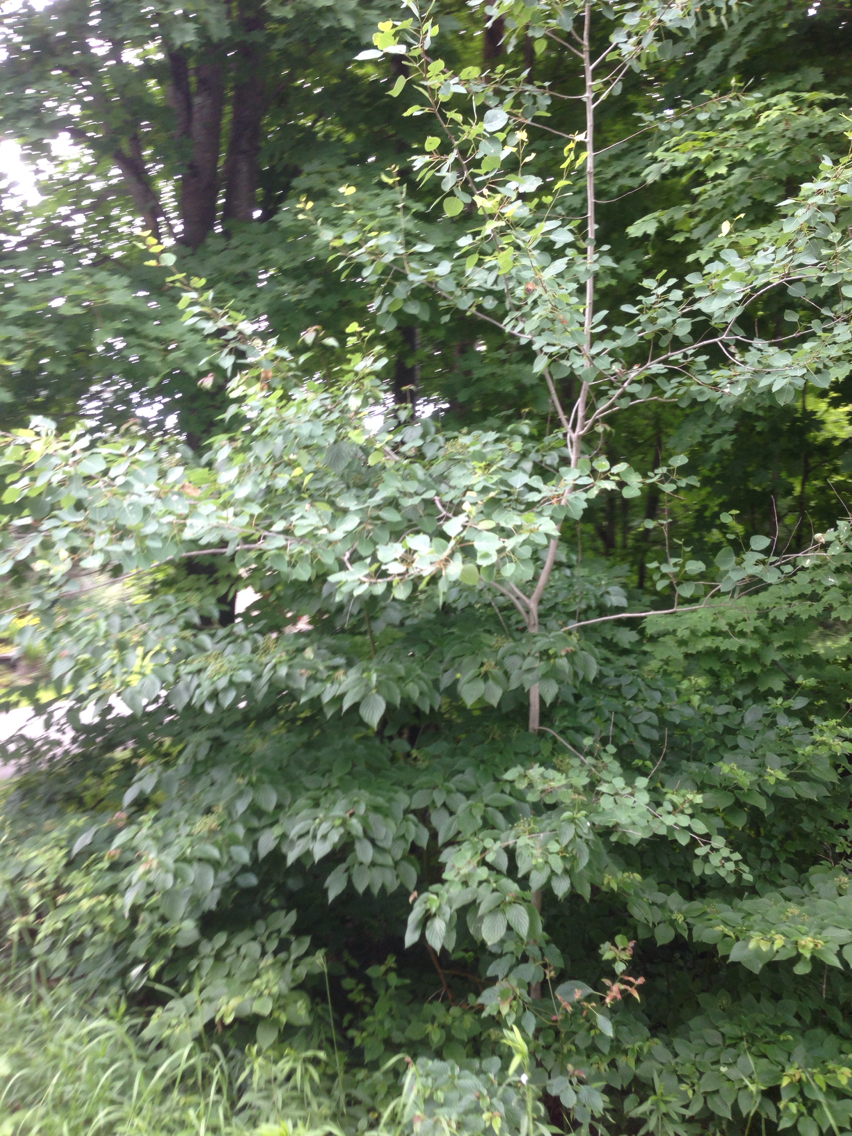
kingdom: Plantae
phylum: Tracheophyta
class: Magnoliopsida
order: Malpighiales
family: Salicaceae
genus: Populus
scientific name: Populus tremuloides
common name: Quaking aspen
